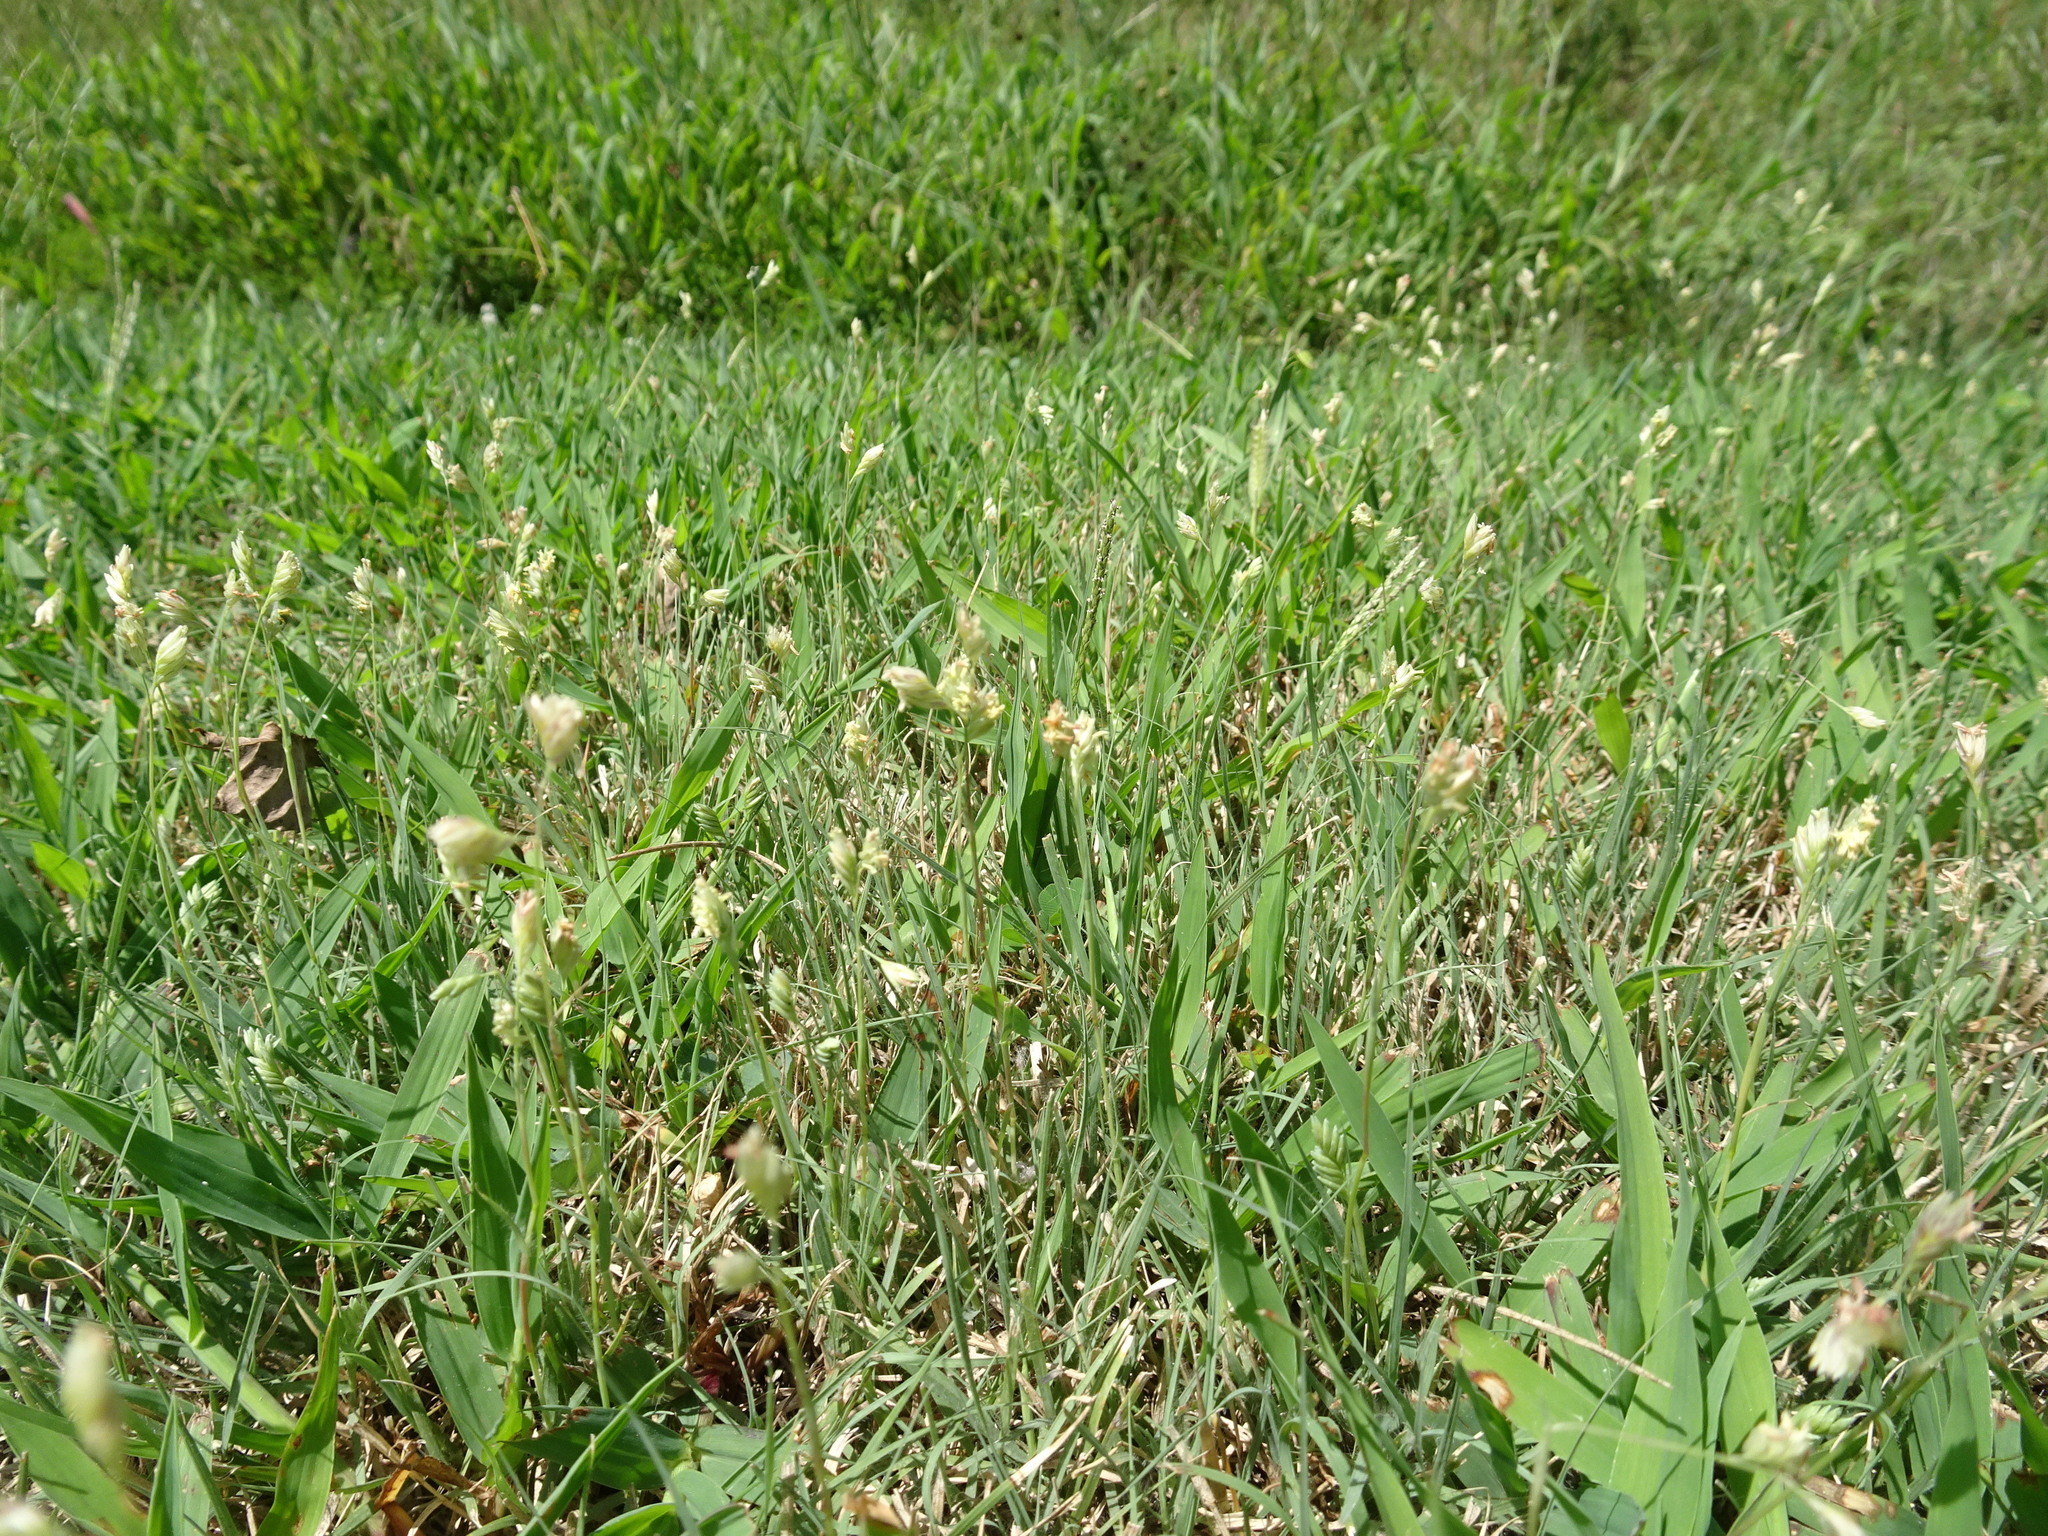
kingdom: Plantae
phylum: Tracheophyta
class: Liliopsida
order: Poales
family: Poaceae
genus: Bouteloua
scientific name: Bouteloua dactyloides
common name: Buffalo grass
